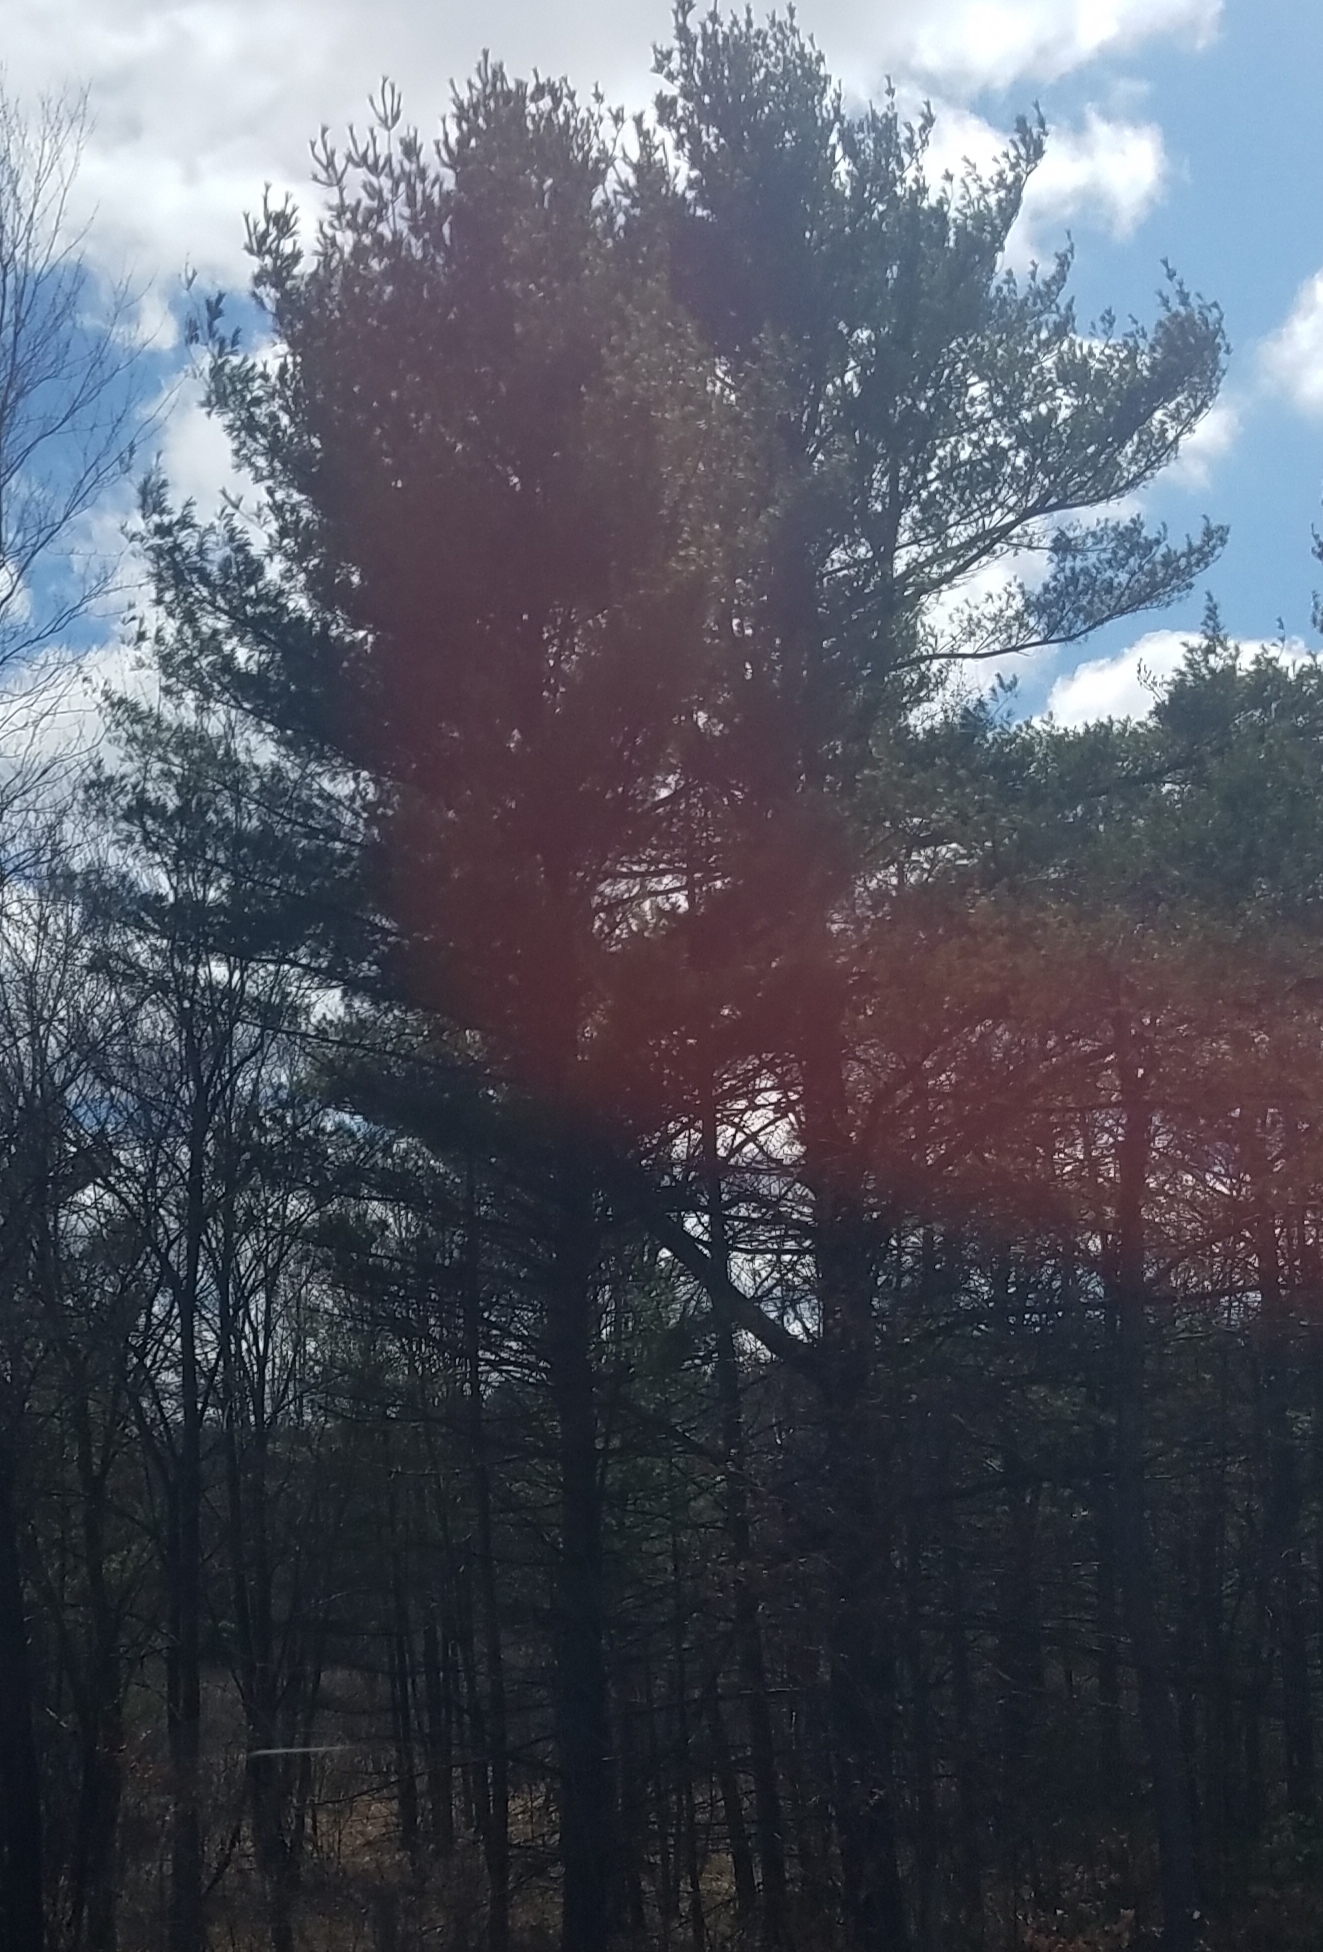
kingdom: Plantae
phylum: Tracheophyta
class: Pinopsida
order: Pinales
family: Pinaceae
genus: Pinus
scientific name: Pinus strobus
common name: Weymouth pine
